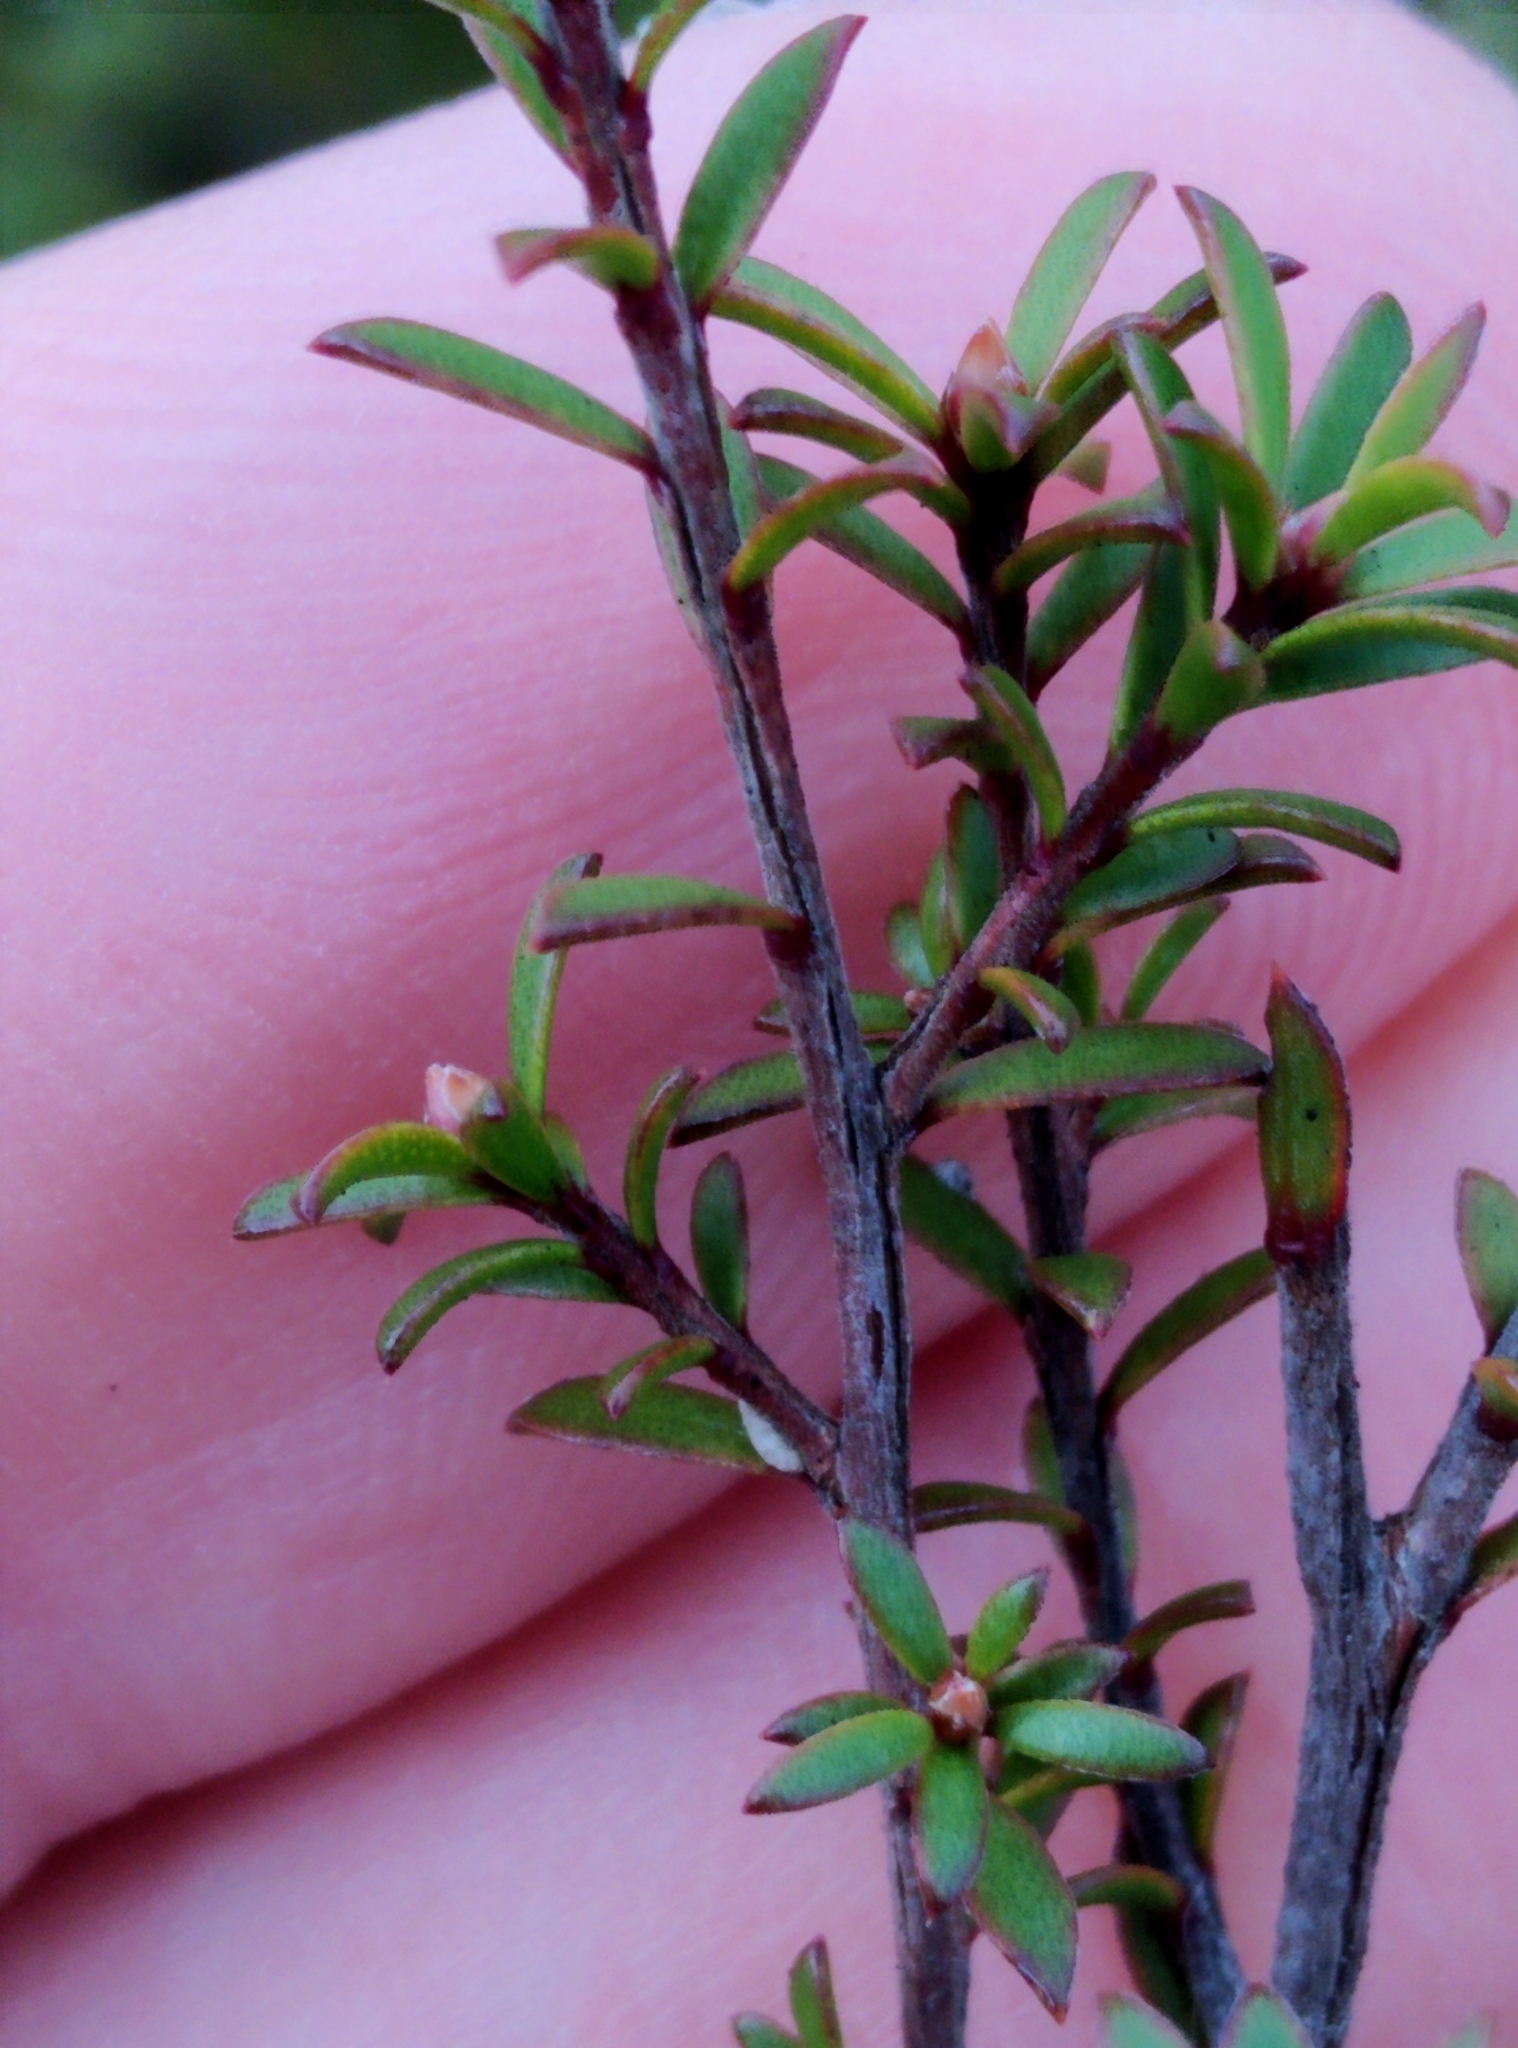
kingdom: Plantae
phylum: Tracheophyta
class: Magnoliopsida
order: Myrtales
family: Myrtaceae
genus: Kunzea
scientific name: Kunzea tenuicaulis
